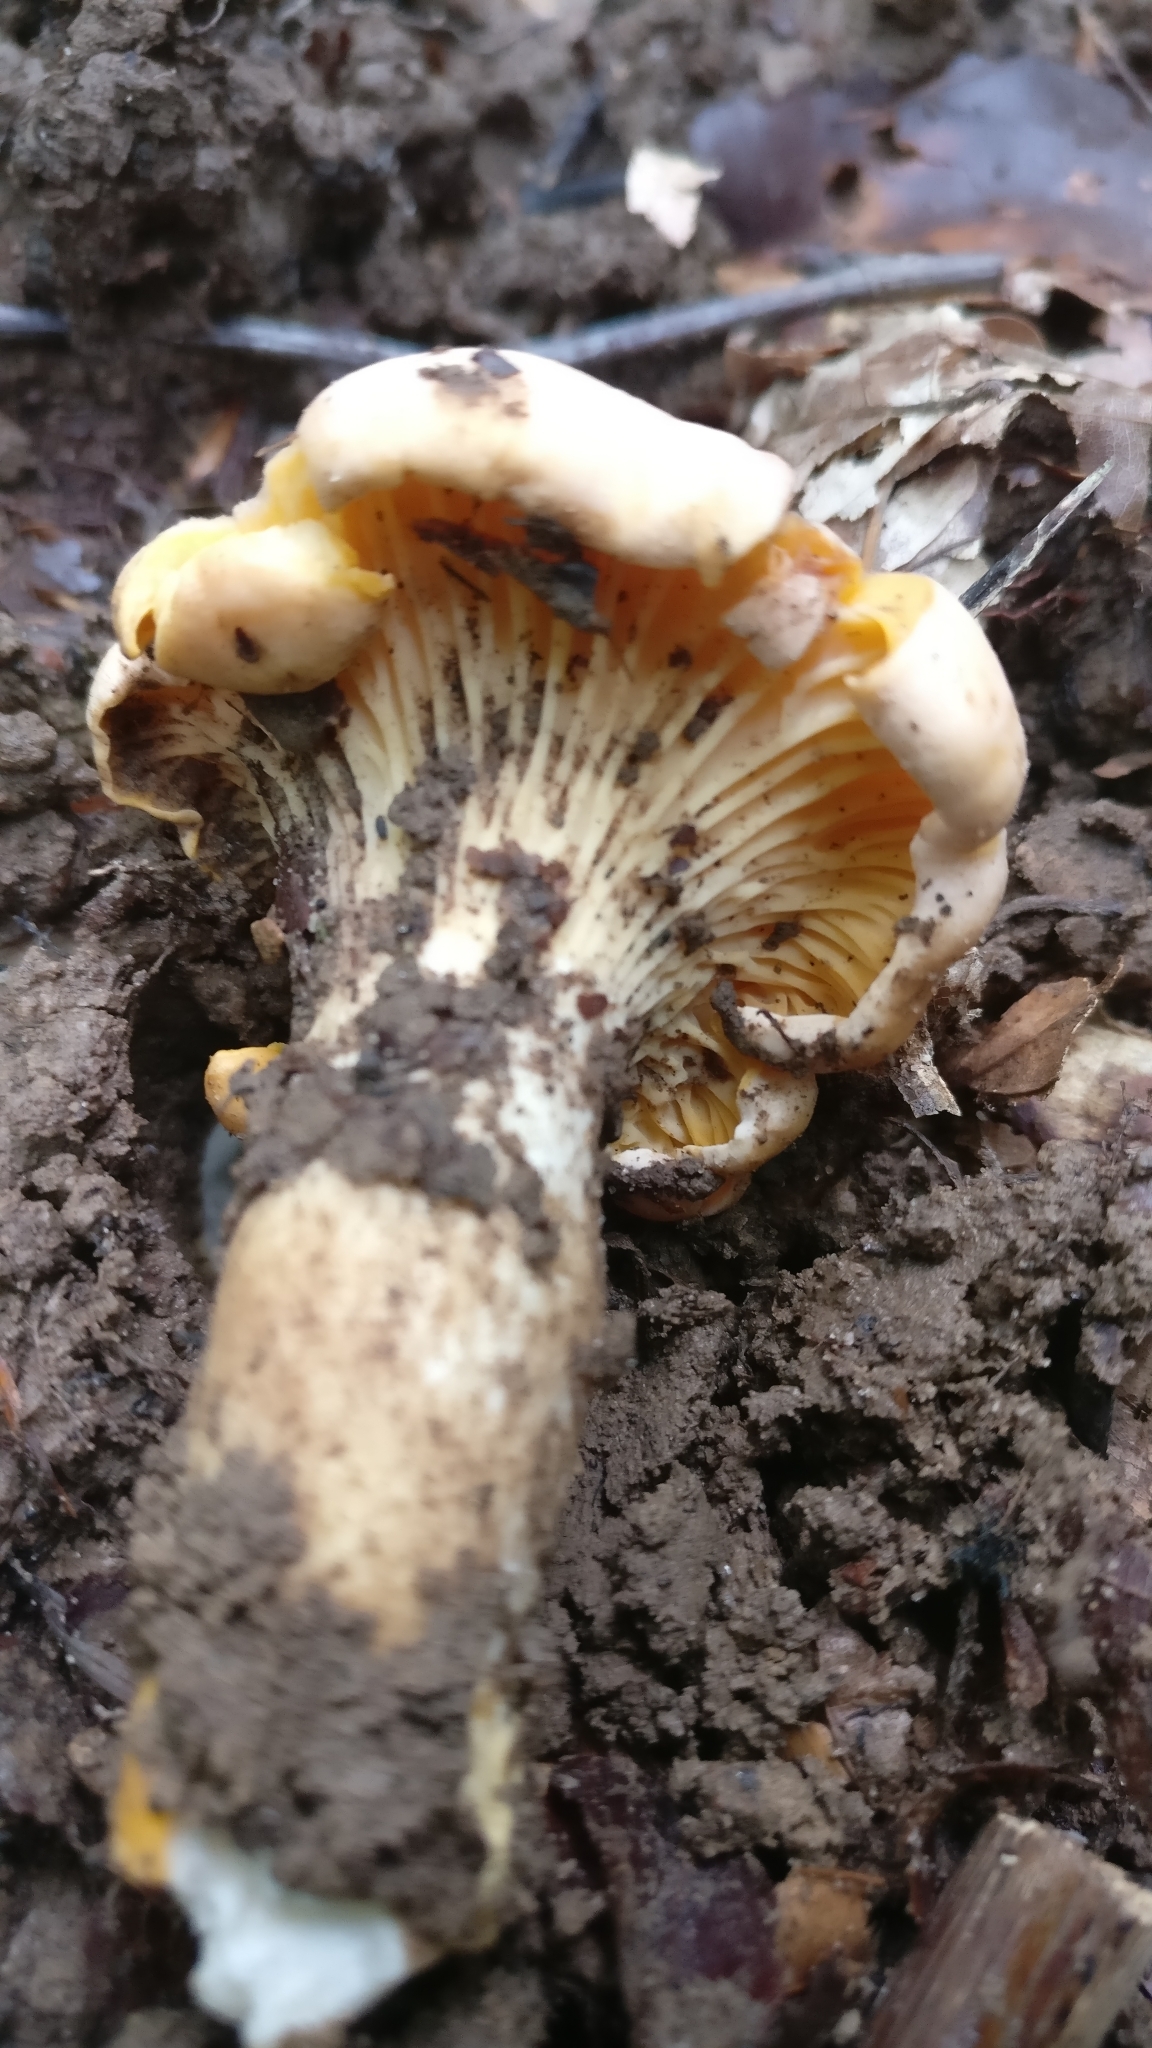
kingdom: Fungi
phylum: Basidiomycota
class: Agaricomycetes
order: Cantharellales
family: Hydnaceae
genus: Cantharellus
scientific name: Cantharellus cibarius
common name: Chanterelle
